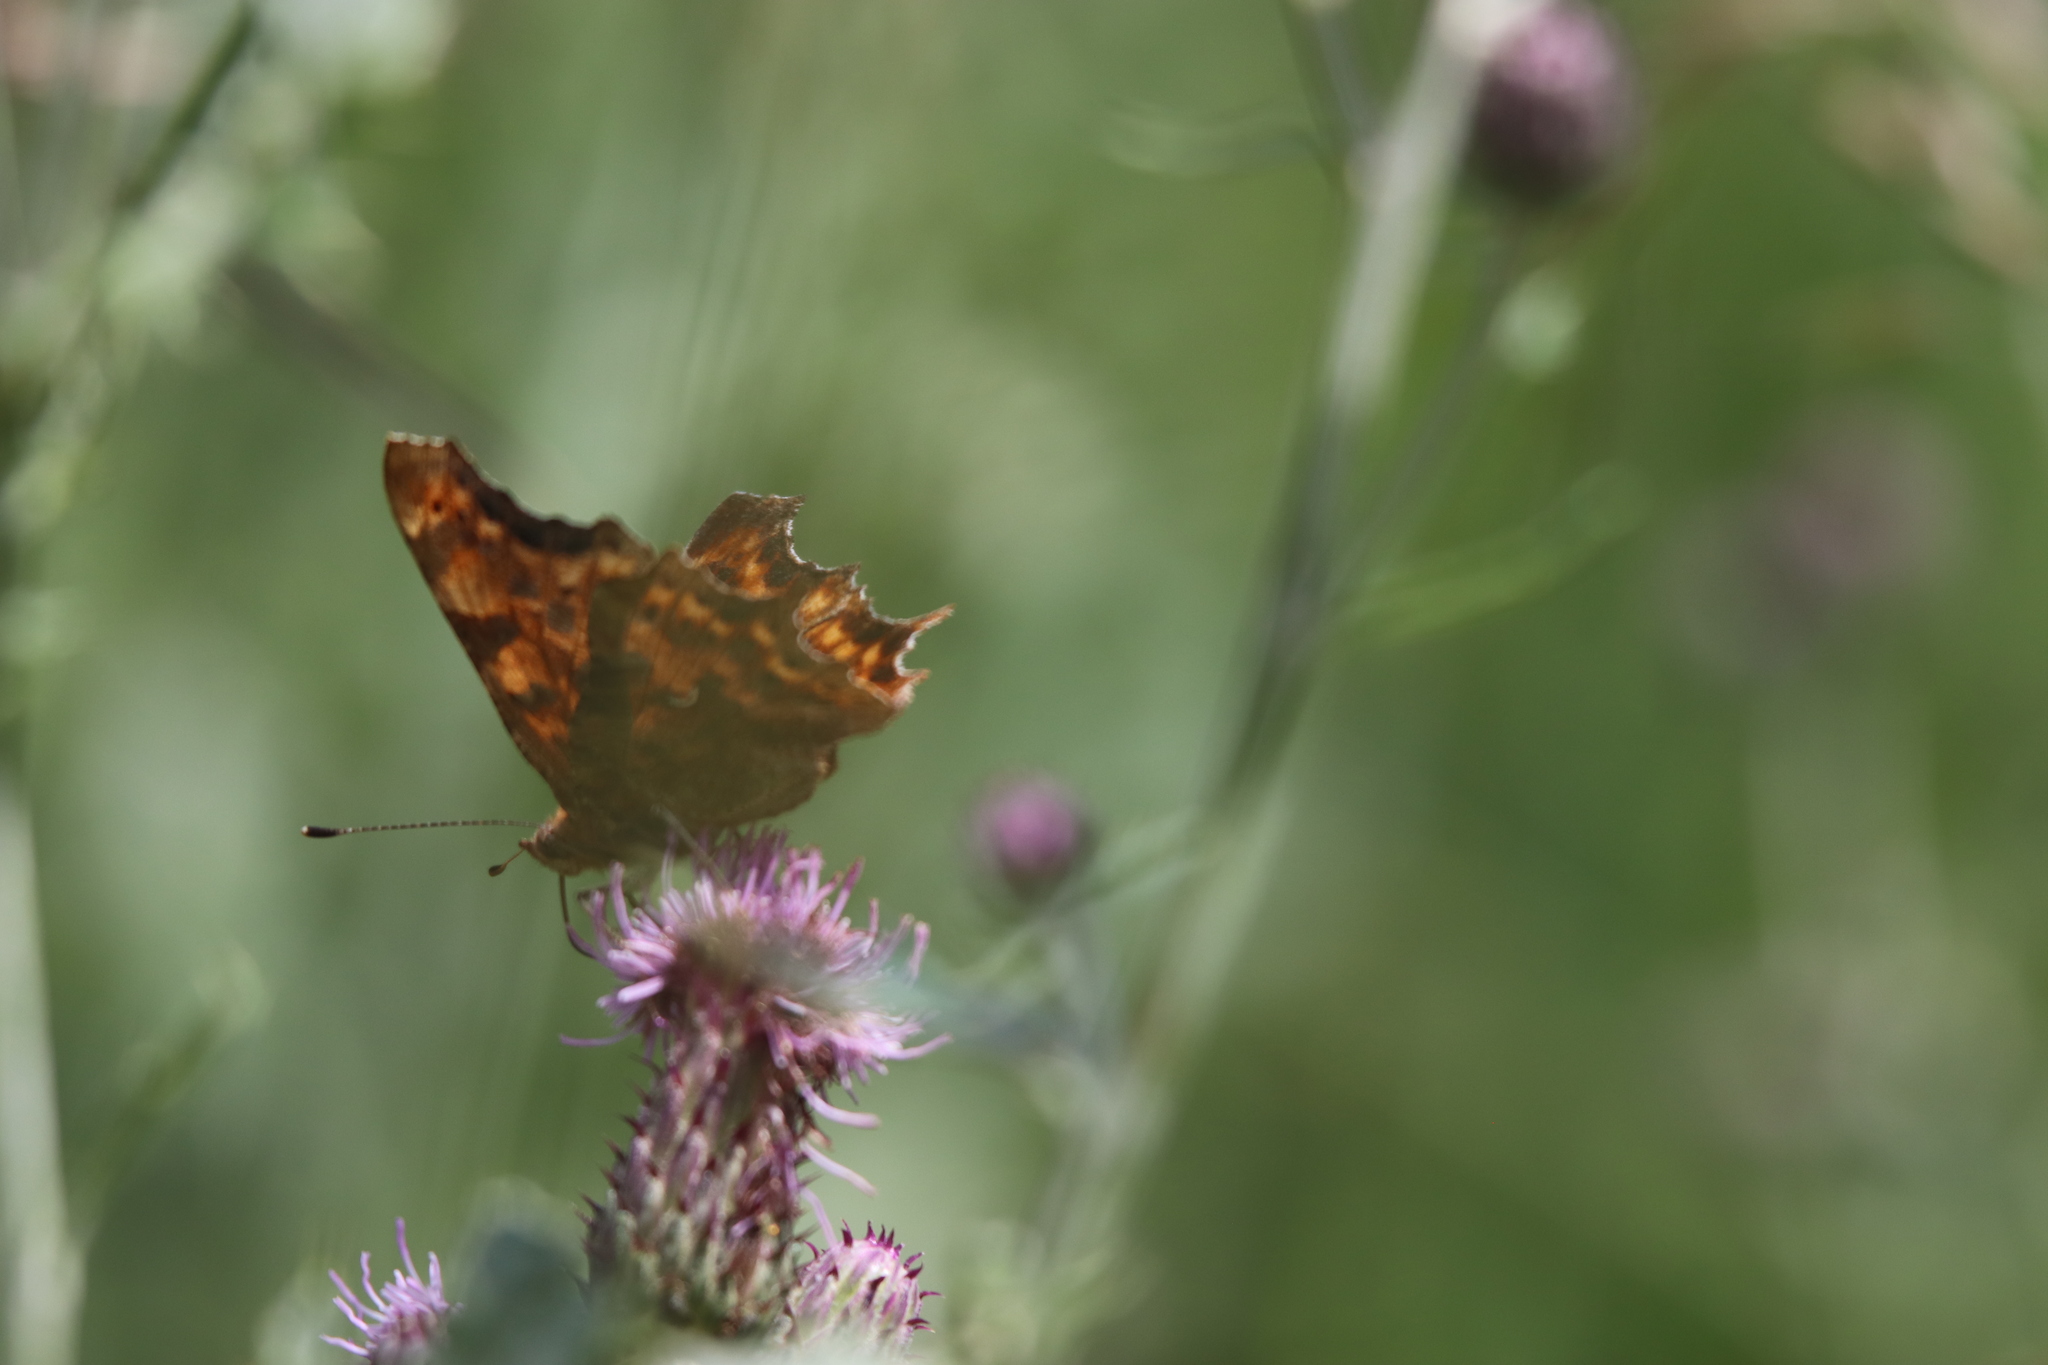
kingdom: Animalia
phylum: Arthropoda
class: Insecta
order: Lepidoptera
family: Nymphalidae
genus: Polygonia
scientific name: Polygonia c-album
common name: Comma
